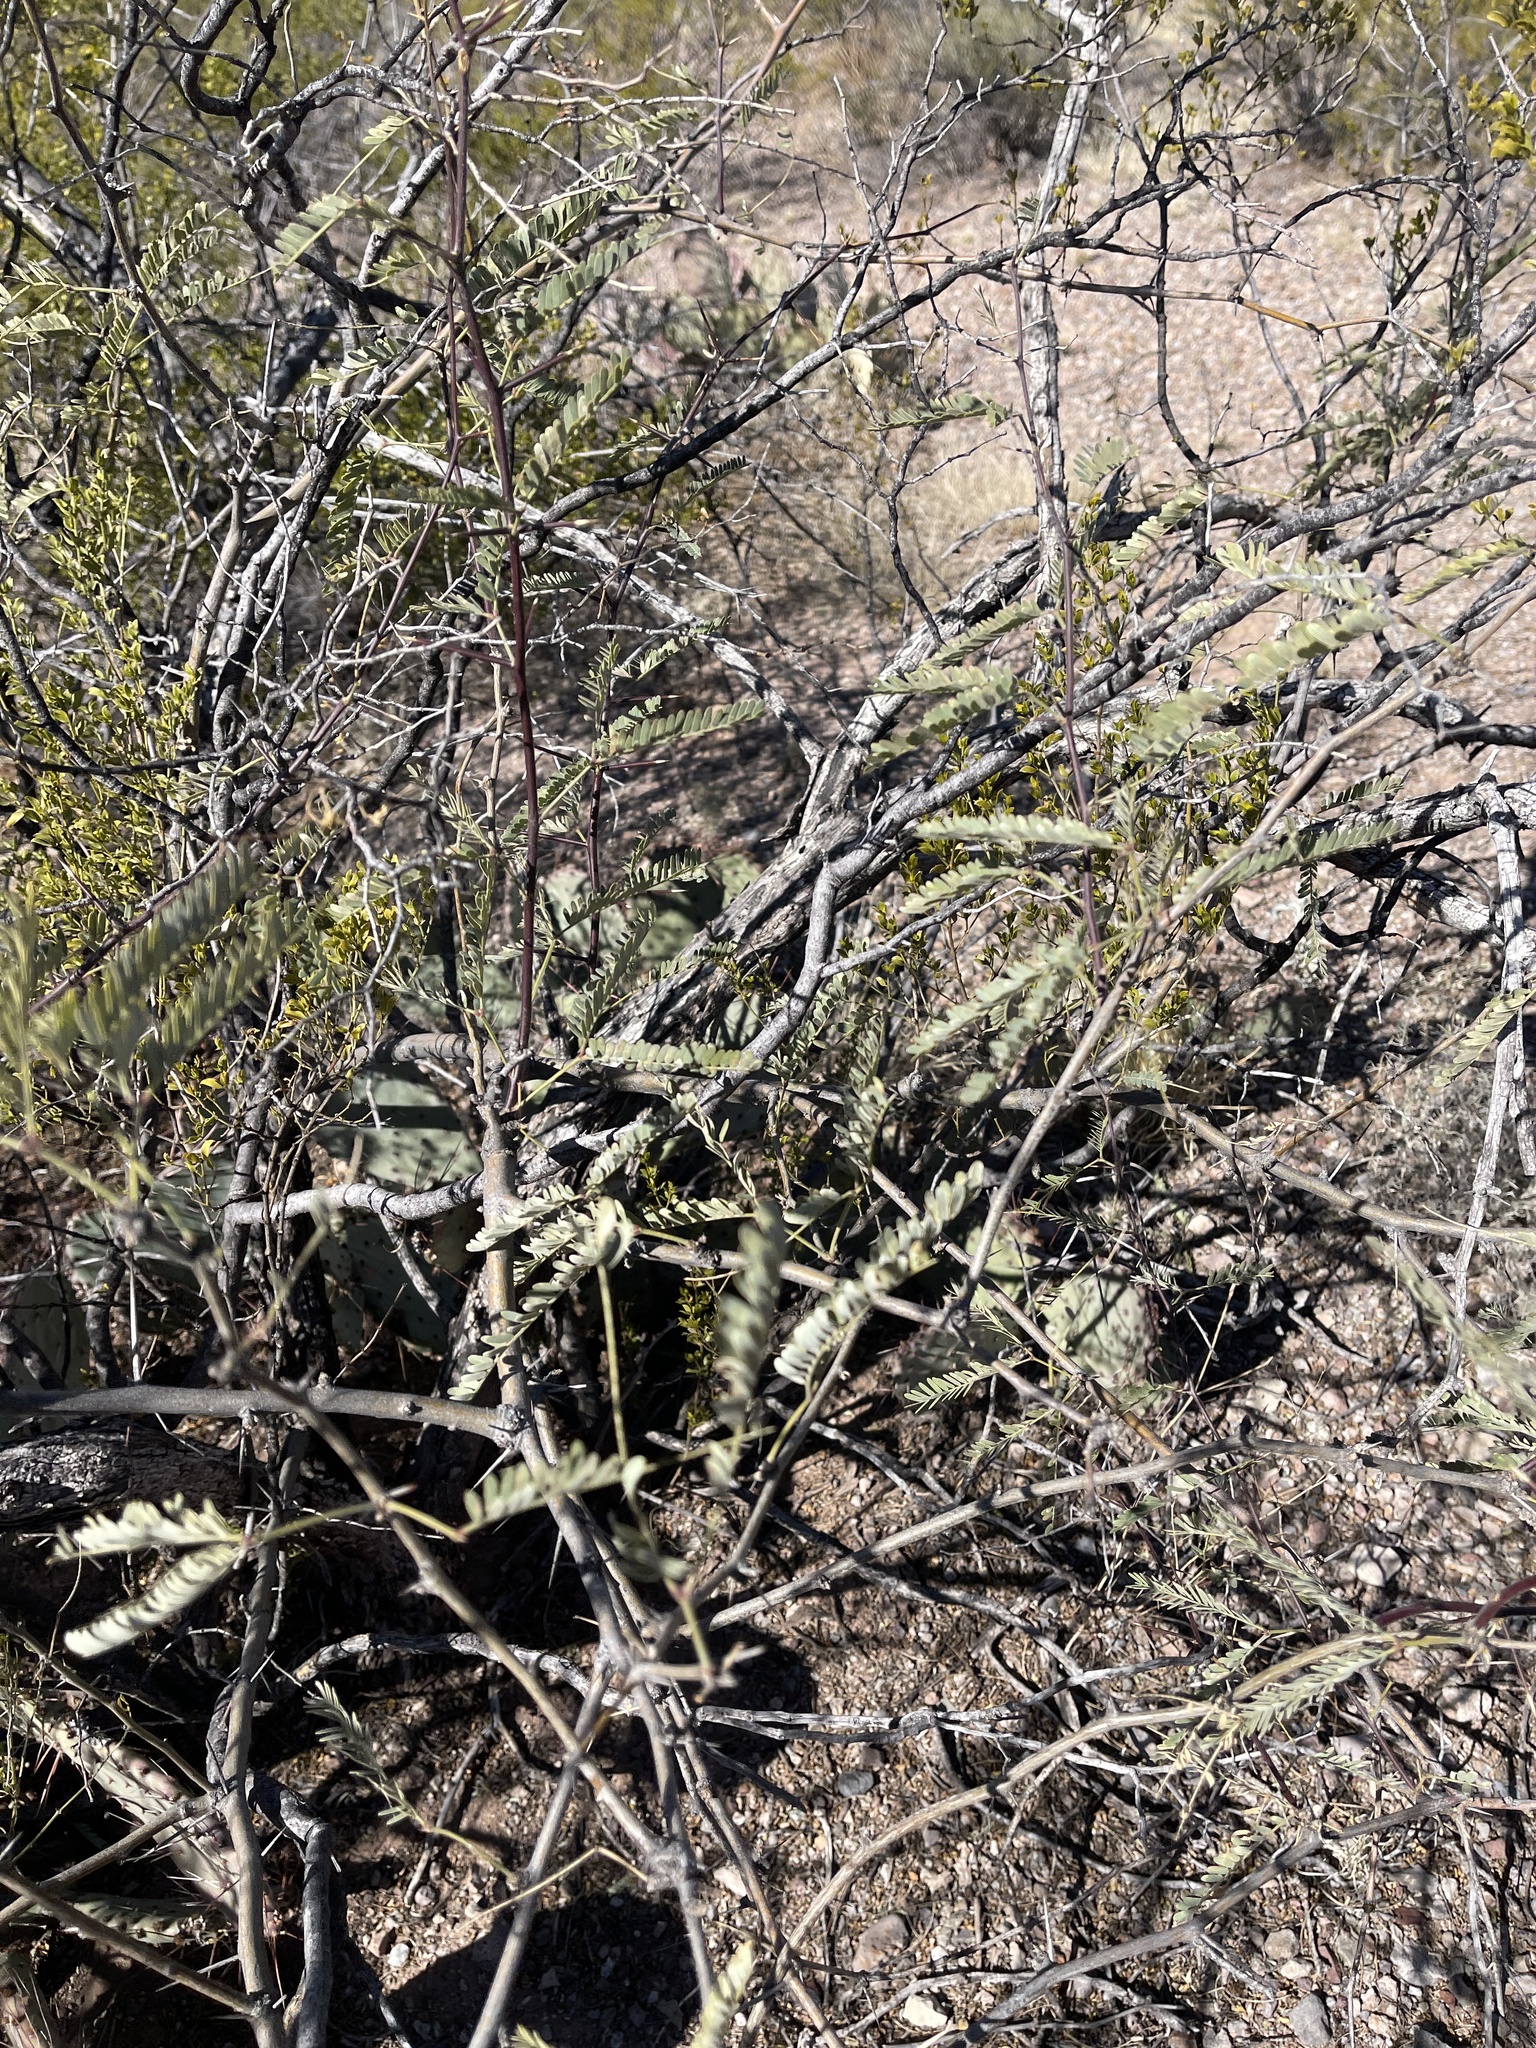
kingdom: Plantae
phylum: Tracheophyta
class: Magnoliopsida
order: Fabales
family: Fabaceae
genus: Prosopis
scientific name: Prosopis velutina
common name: Velvet mesquite
